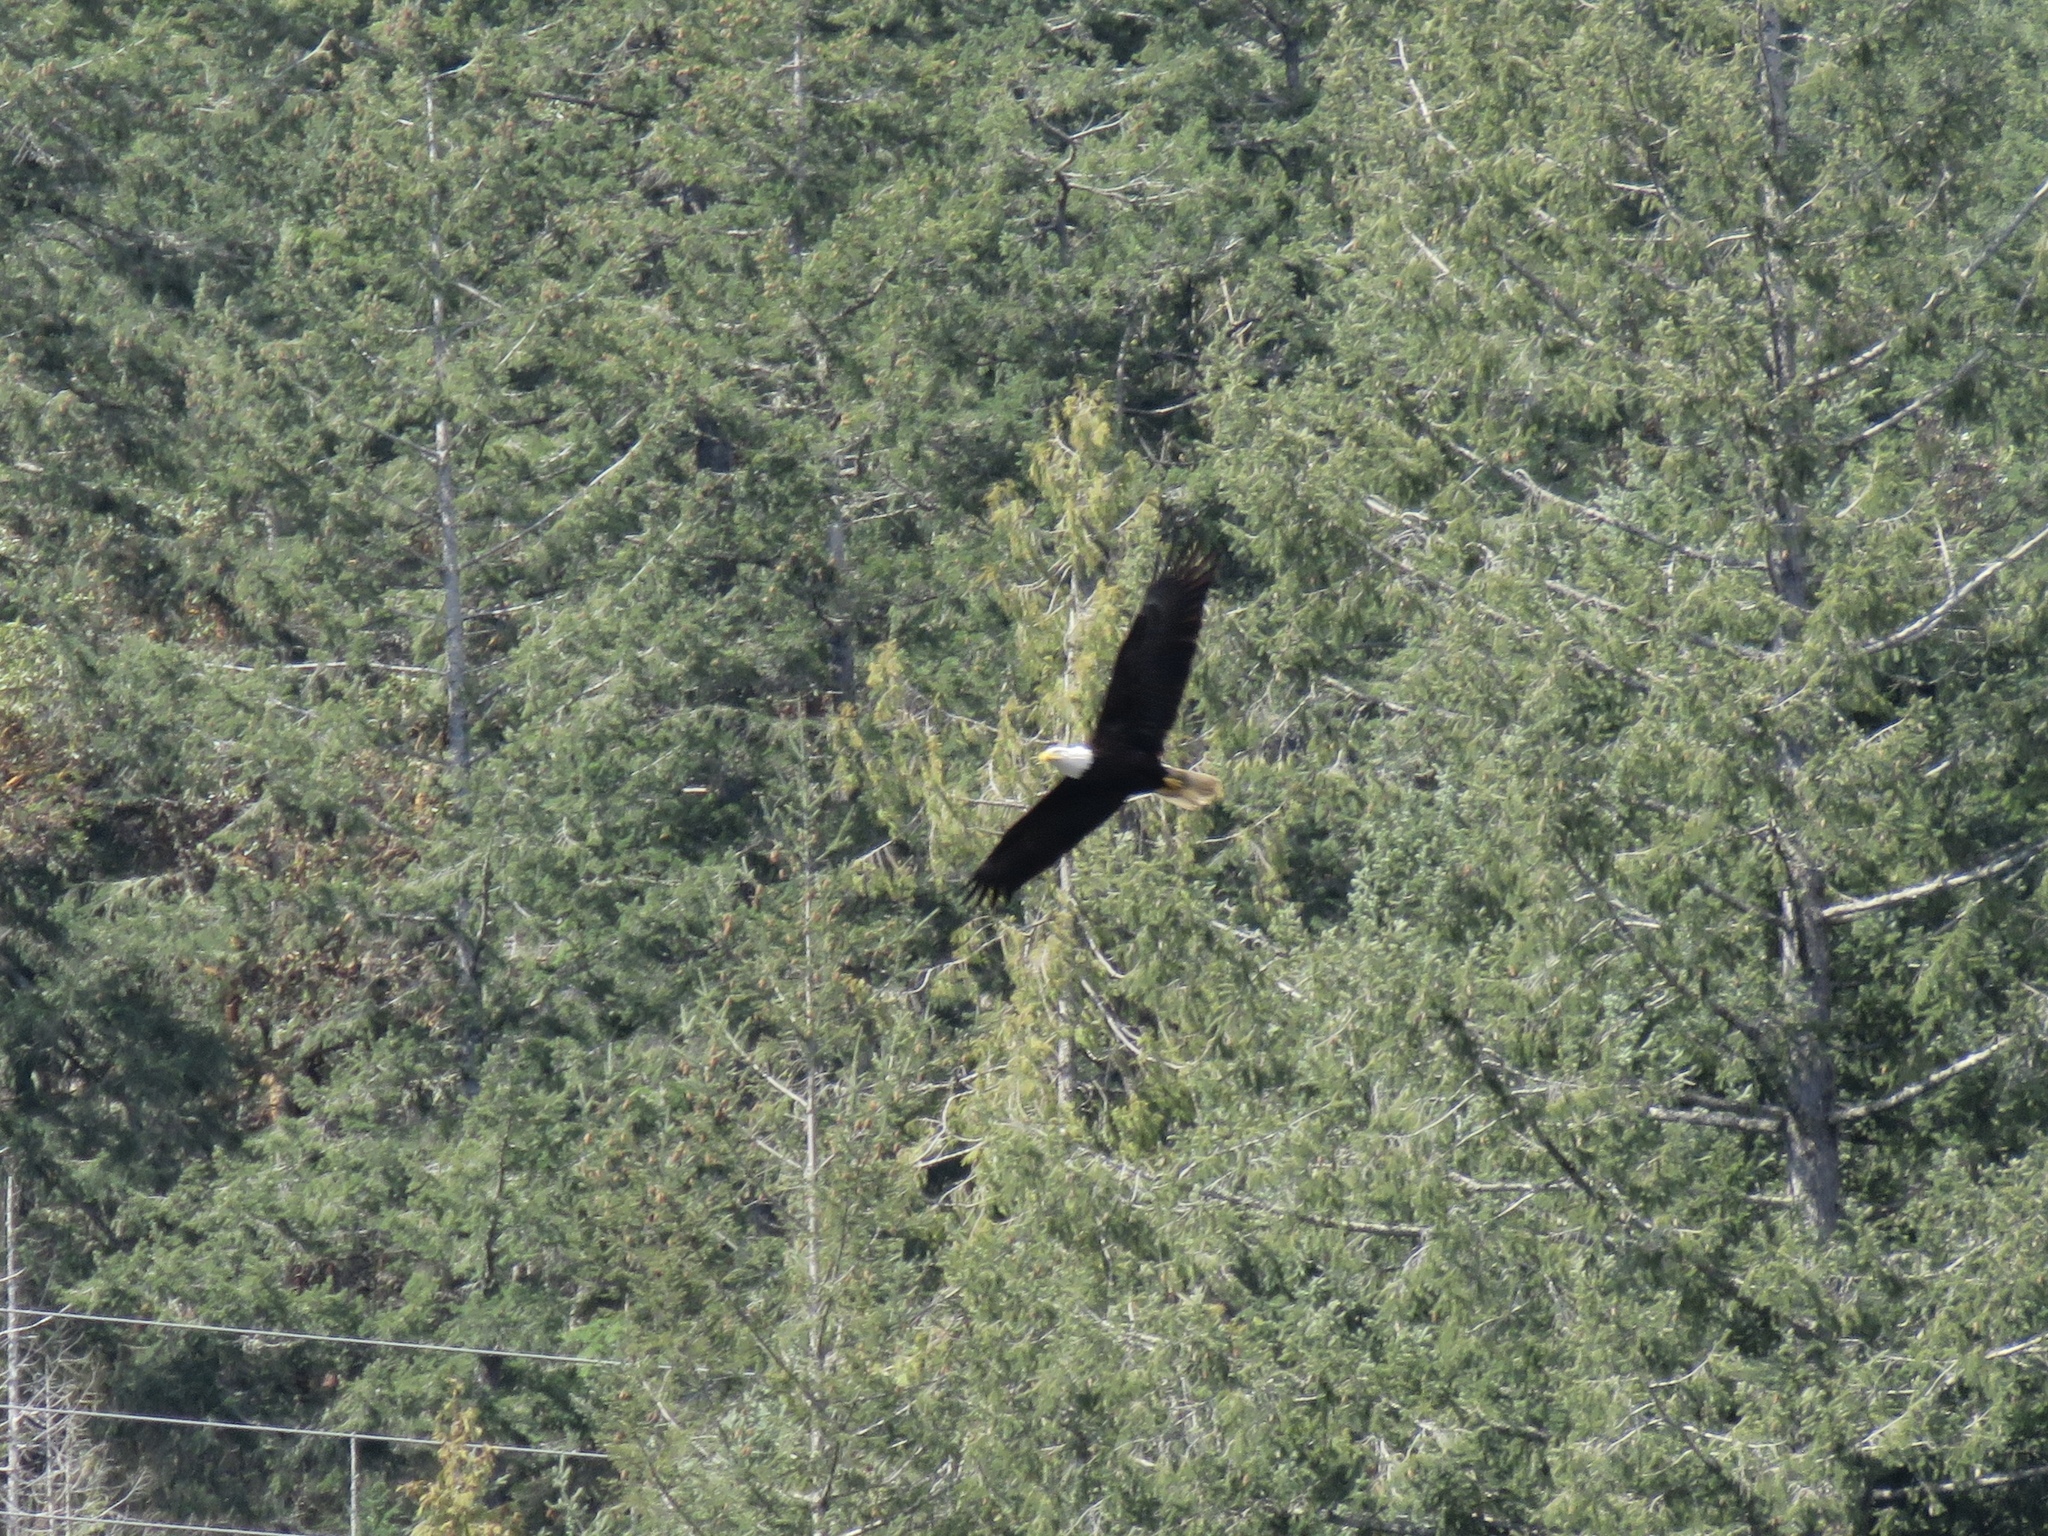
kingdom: Animalia
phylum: Chordata
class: Aves
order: Accipitriformes
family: Accipitridae
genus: Haliaeetus
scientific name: Haliaeetus leucocephalus
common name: Bald eagle
